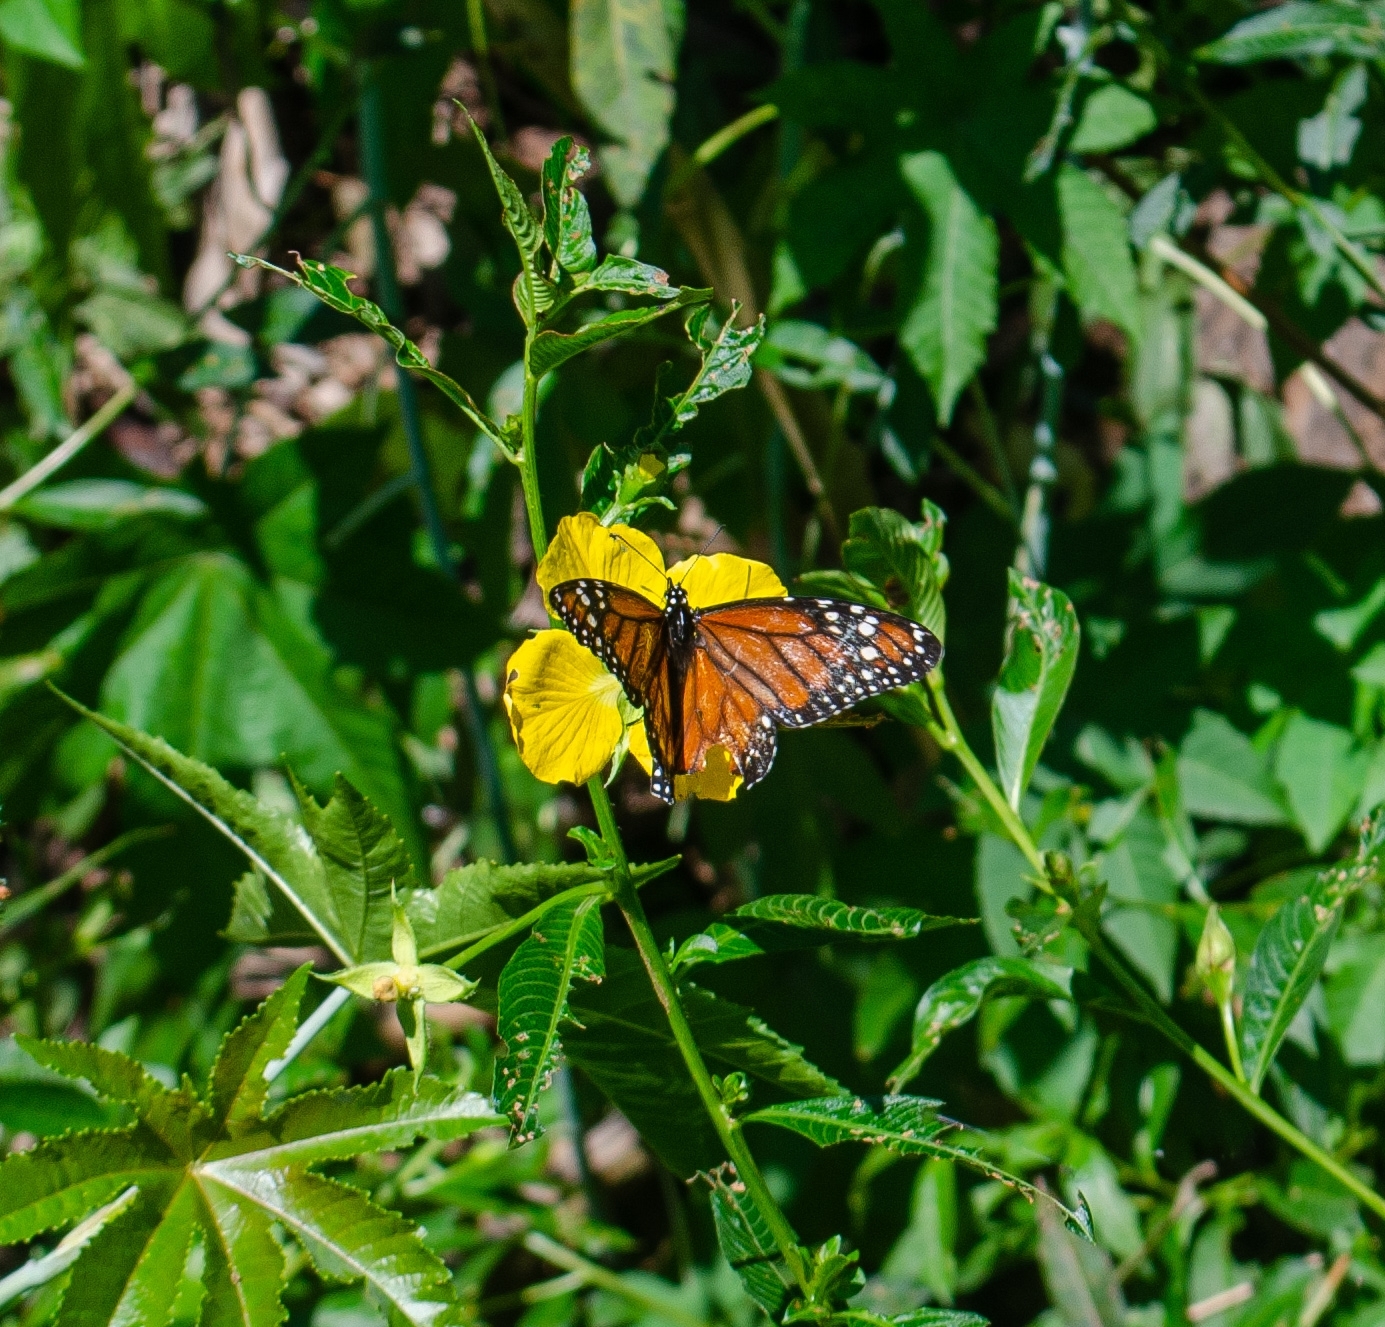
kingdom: Animalia
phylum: Arthropoda
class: Insecta
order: Lepidoptera
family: Nymphalidae
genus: Danaus
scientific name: Danaus erippus
